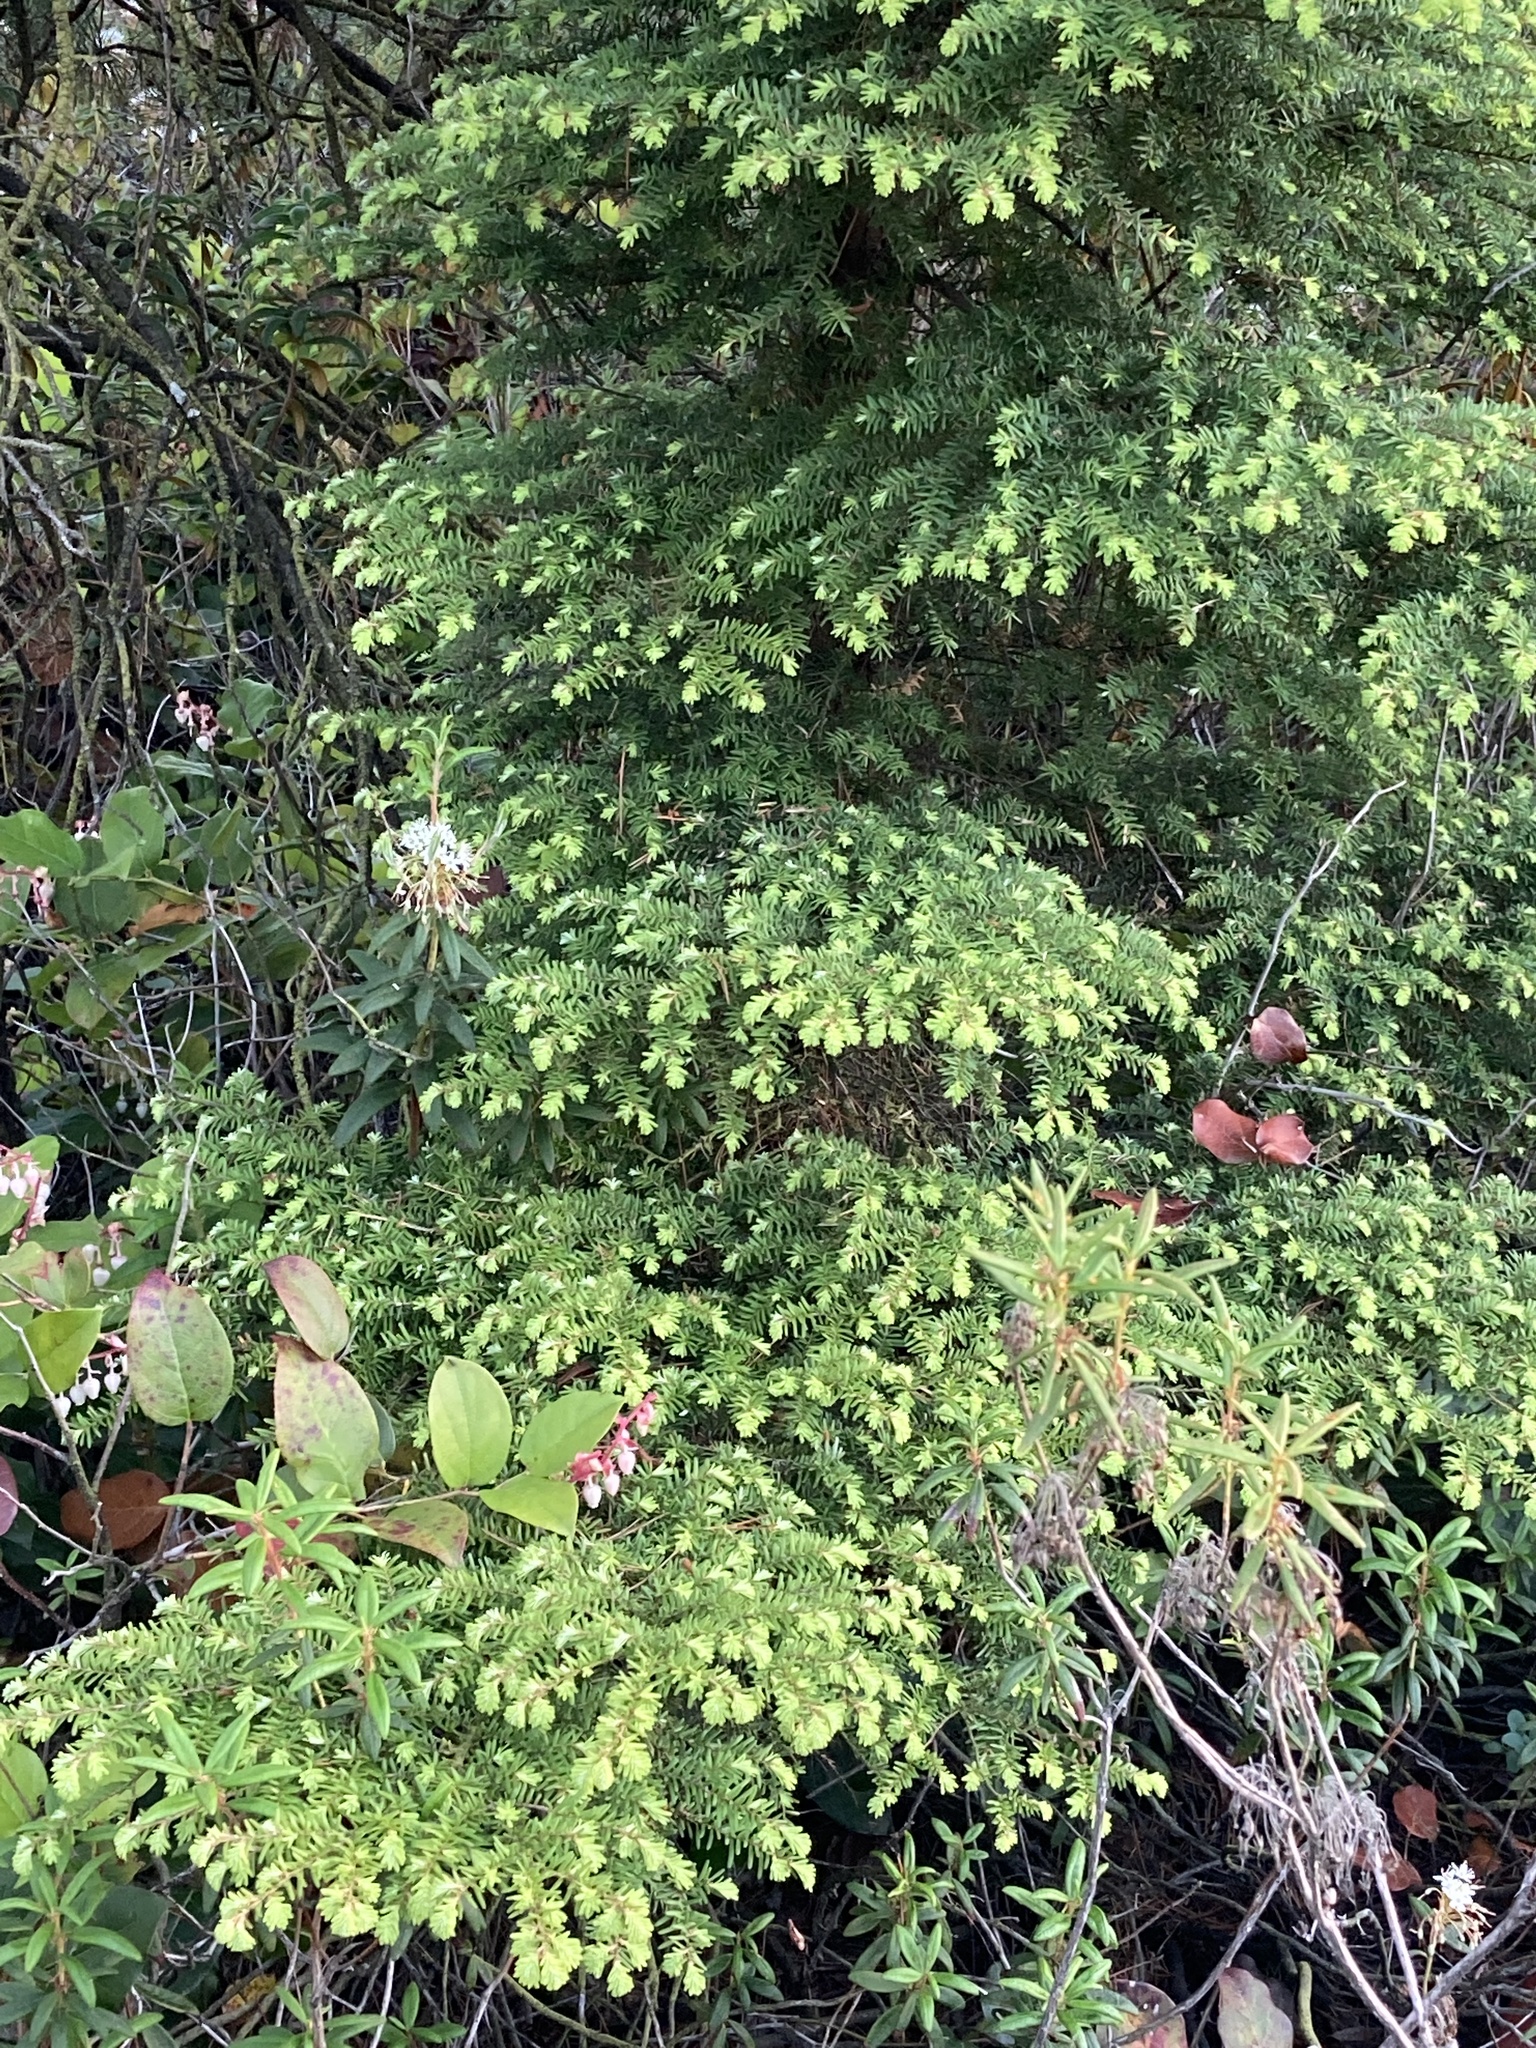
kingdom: Plantae
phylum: Tracheophyta
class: Pinopsida
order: Pinales
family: Pinaceae
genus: Tsuga
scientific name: Tsuga heterophylla
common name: Western hemlock
